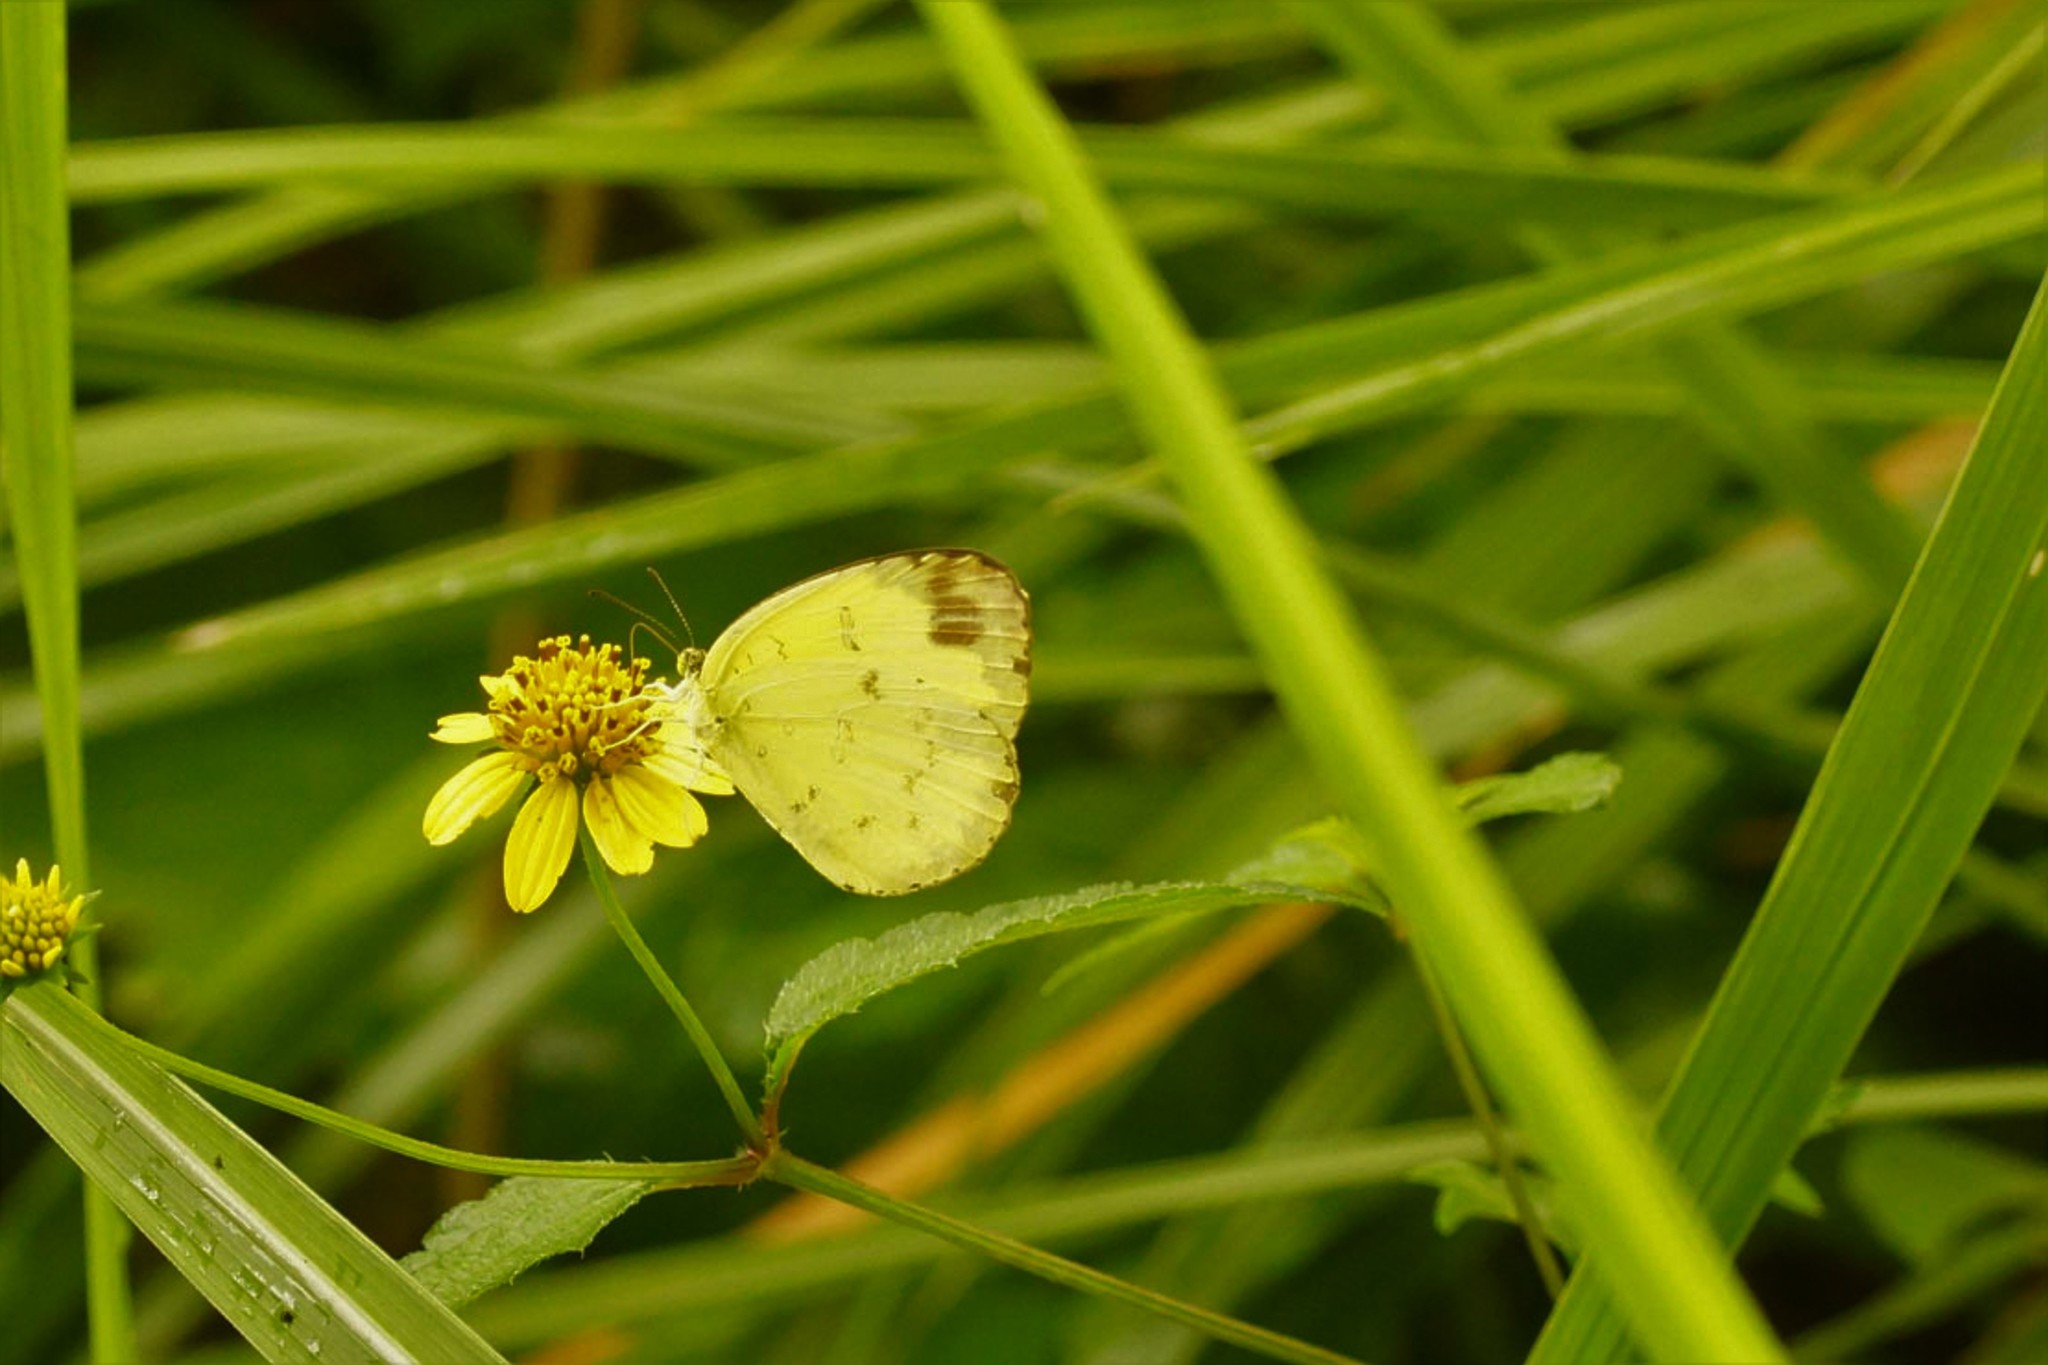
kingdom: Animalia
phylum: Arthropoda
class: Insecta
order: Lepidoptera
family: Pieridae
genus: Eurema
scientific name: Eurema blanda
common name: Three-spot grass yellow
